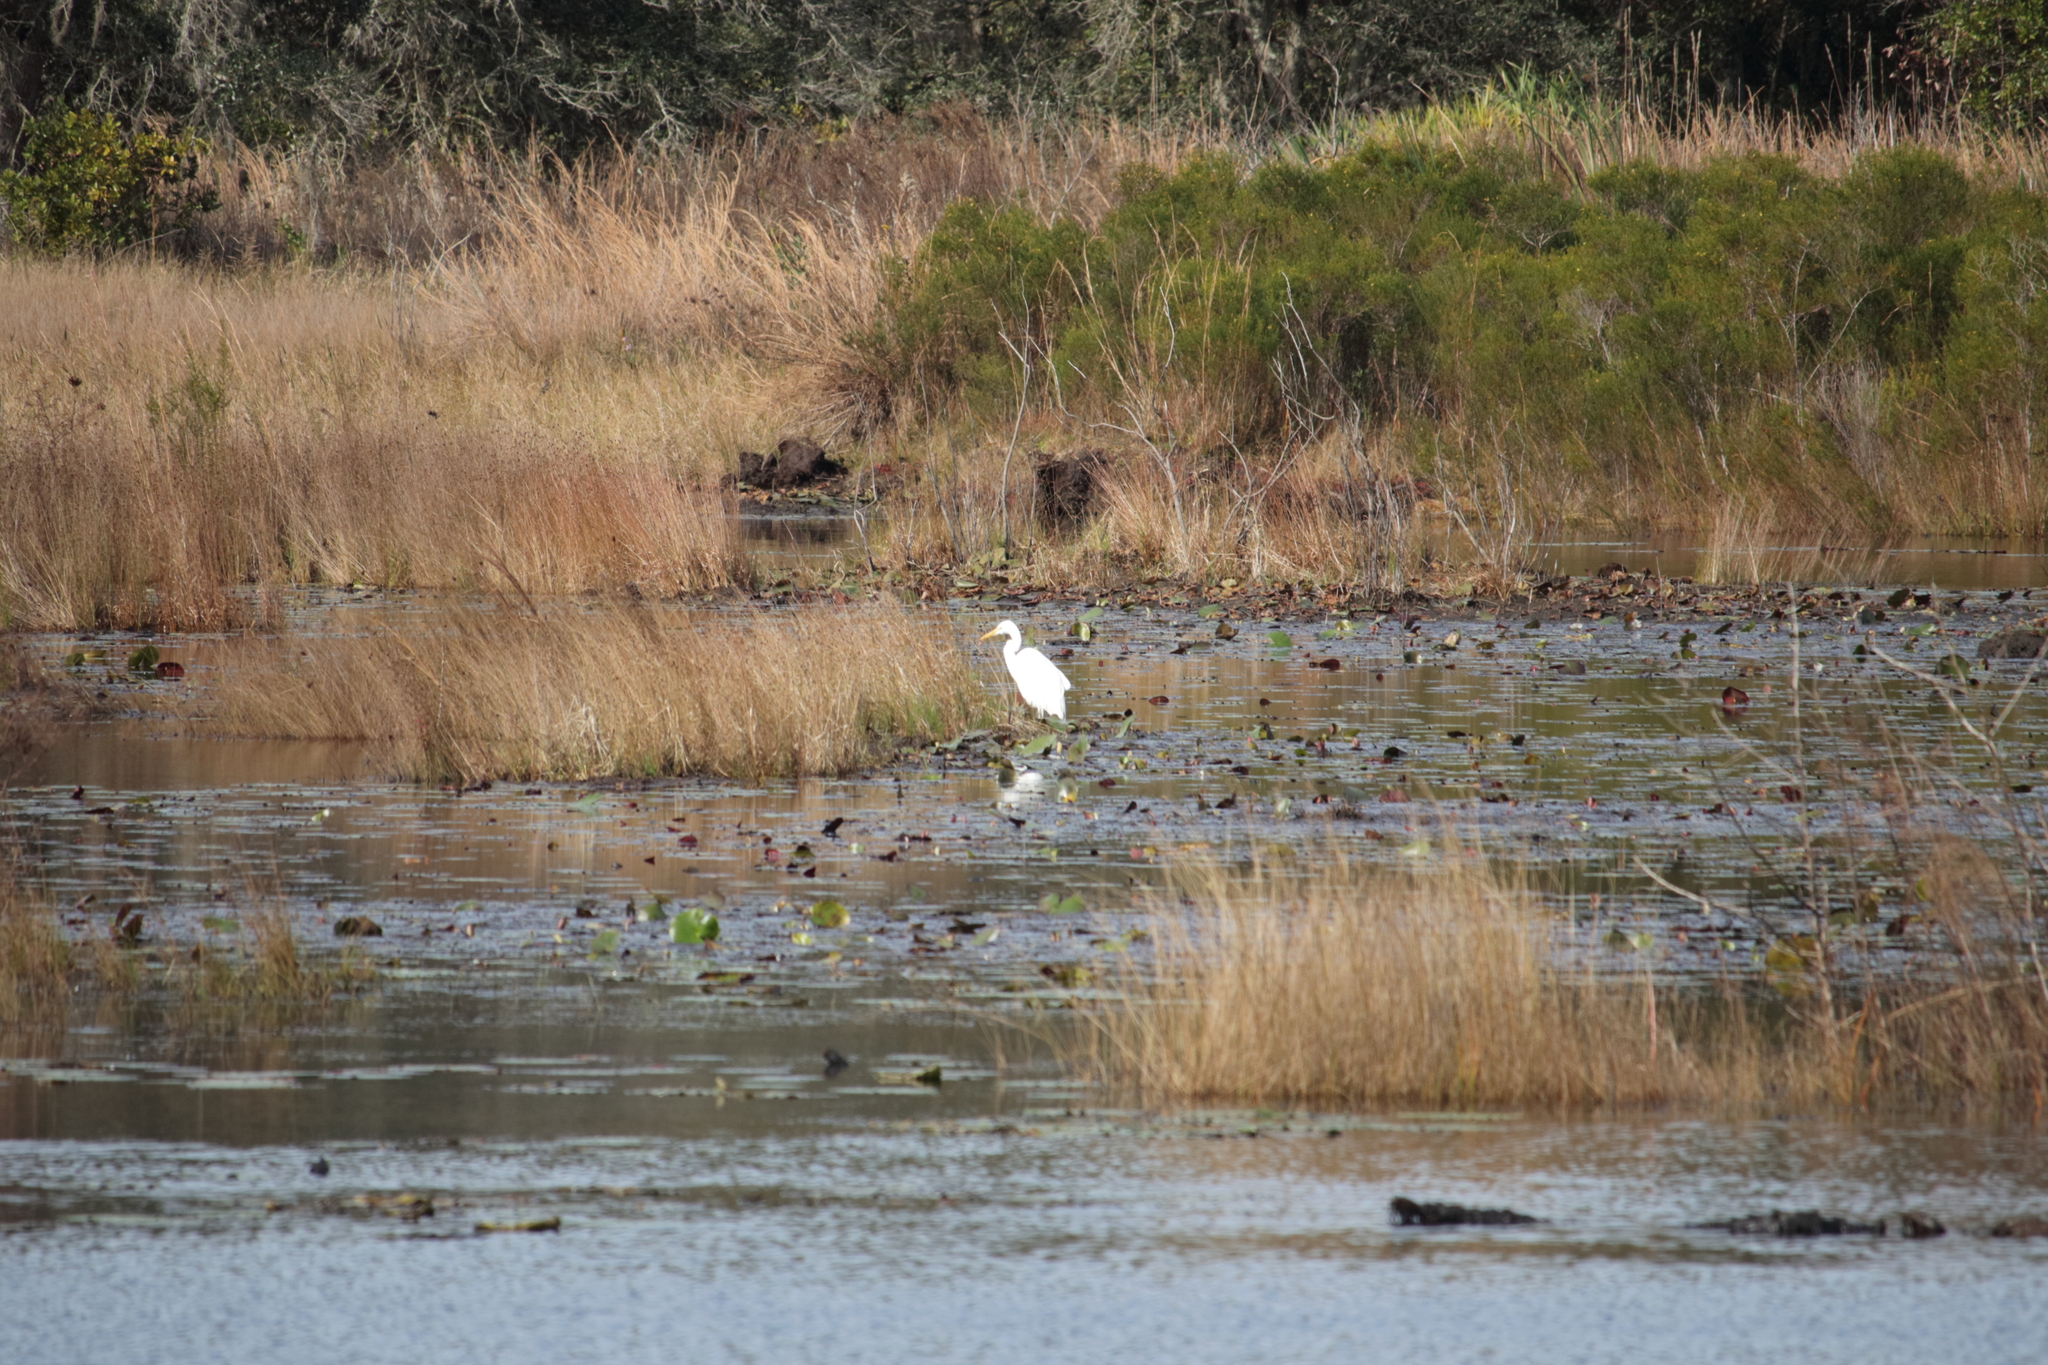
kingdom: Animalia
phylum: Chordata
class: Aves
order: Pelecaniformes
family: Ardeidae
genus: Ardea
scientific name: Ardea alba
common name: Great egret
